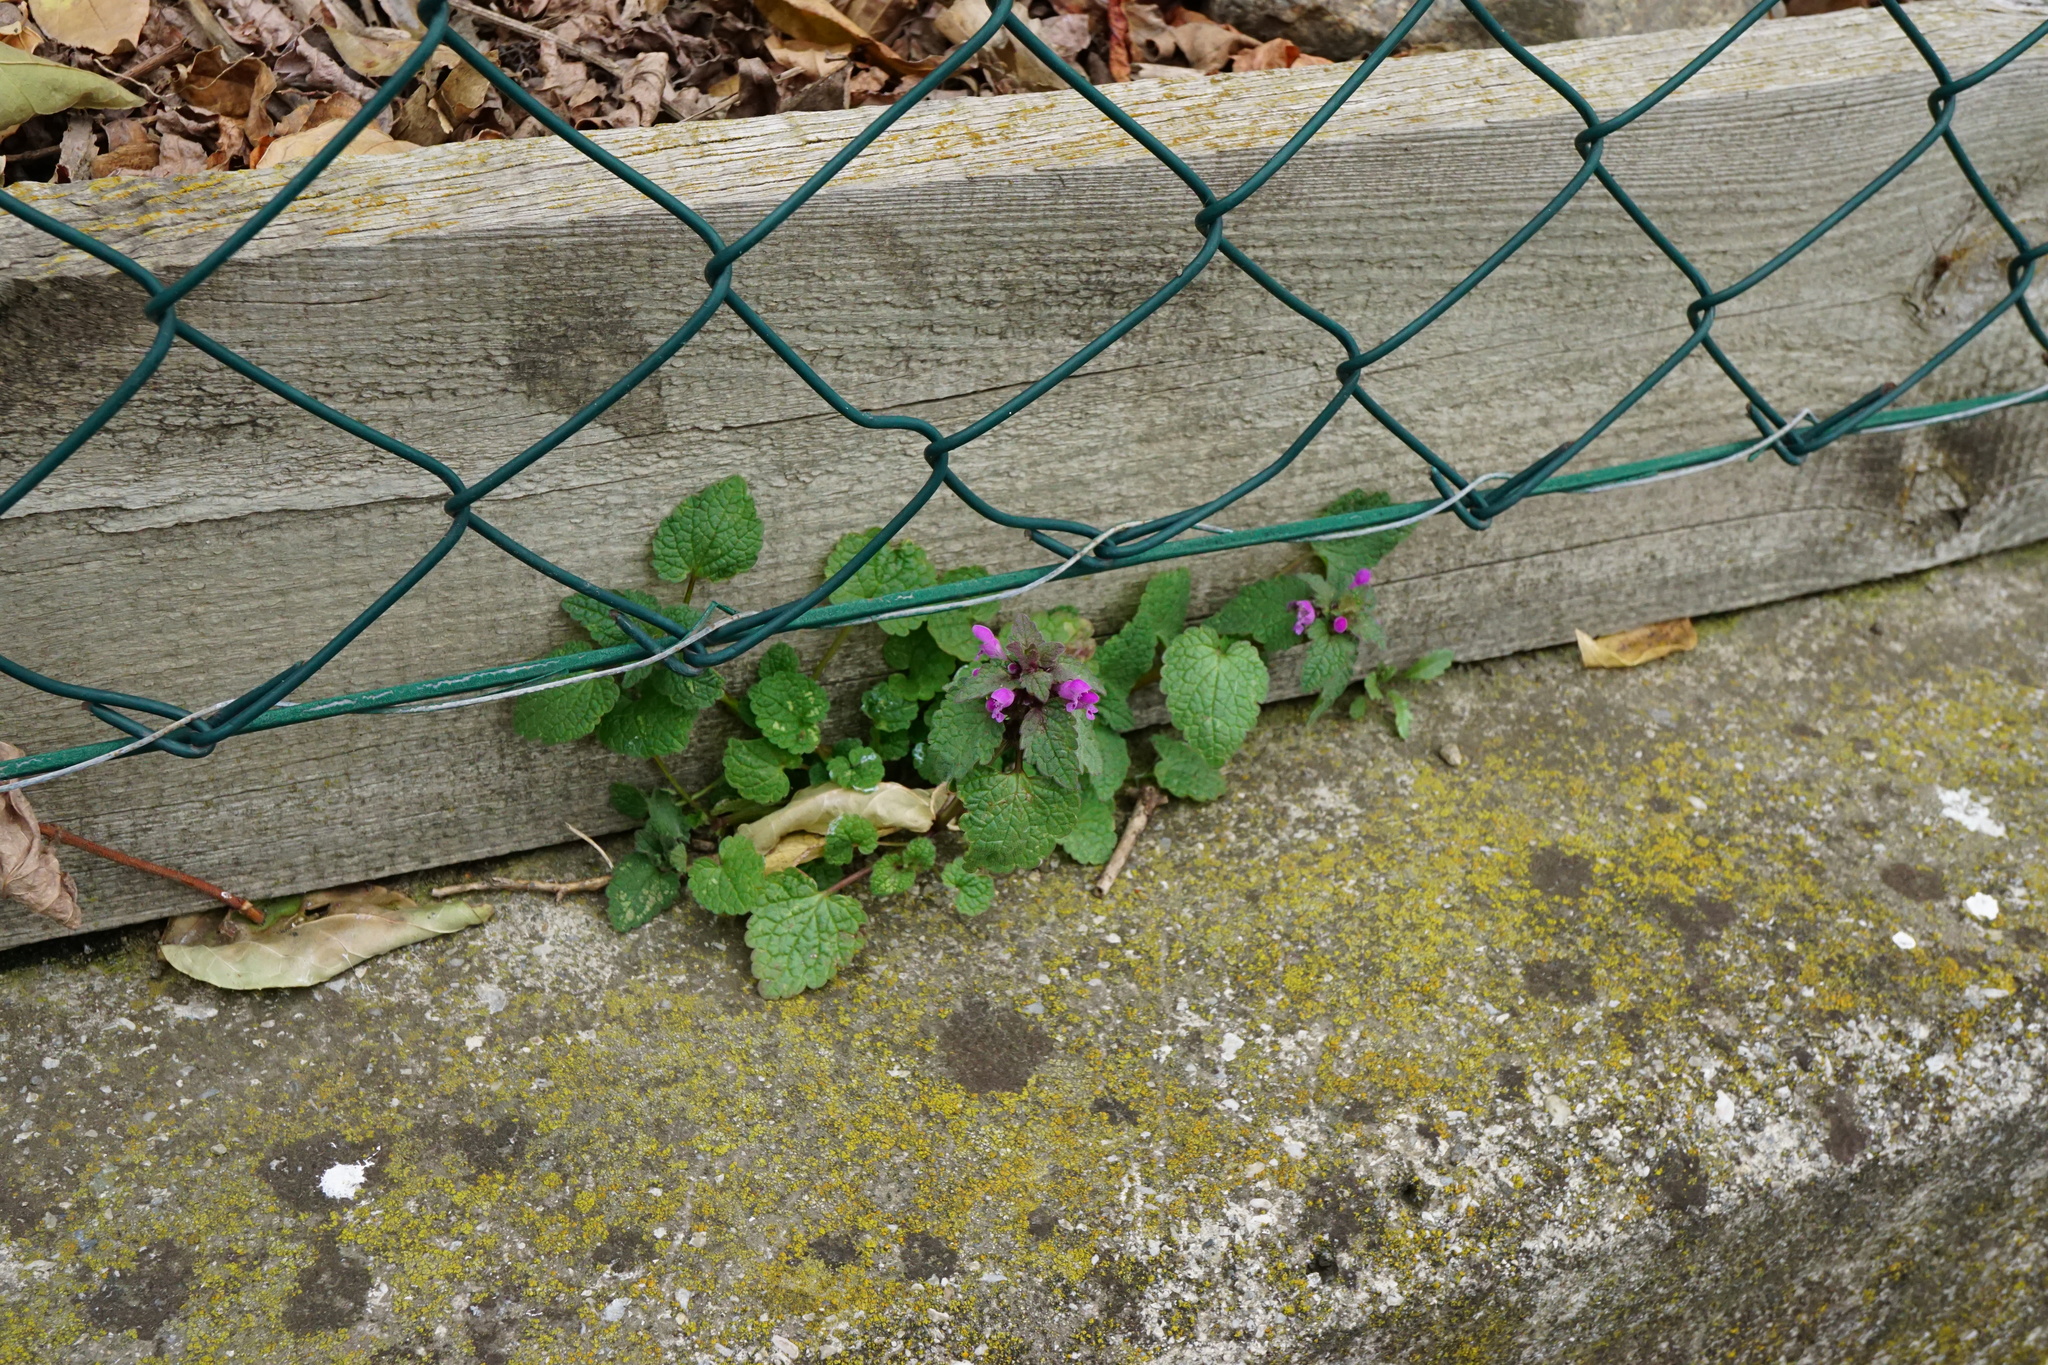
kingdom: Plantae
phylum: Tracheophyta
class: Magnoliopsida
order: Lamiales
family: Lamiaceae
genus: Lamium
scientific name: Lamium purpureum
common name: Red dead-nettle
